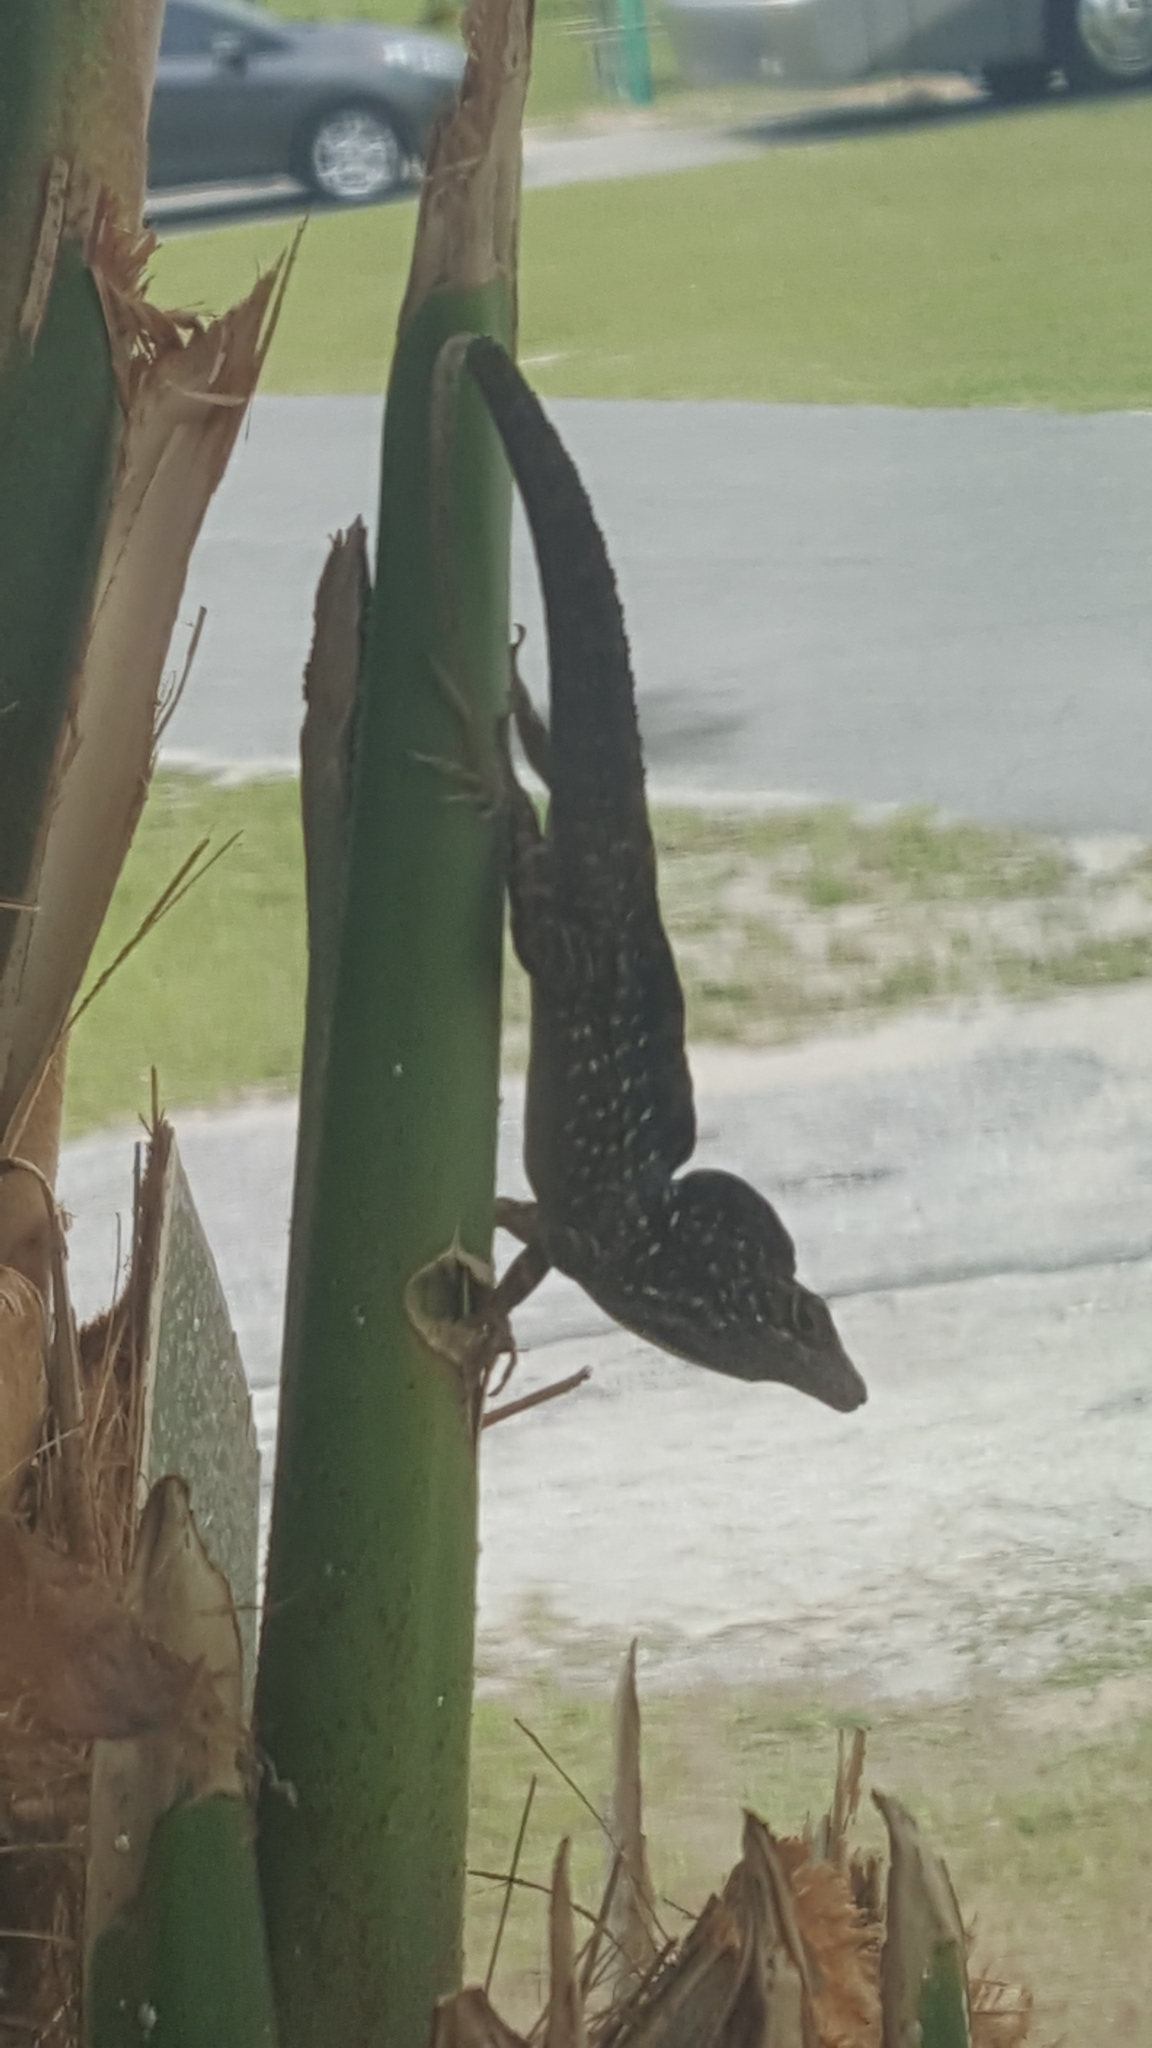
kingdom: Animalia
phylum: Chordata
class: Squamata
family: Dactyloidae
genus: Anolis
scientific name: Anolis sagrei
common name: Brown anole
